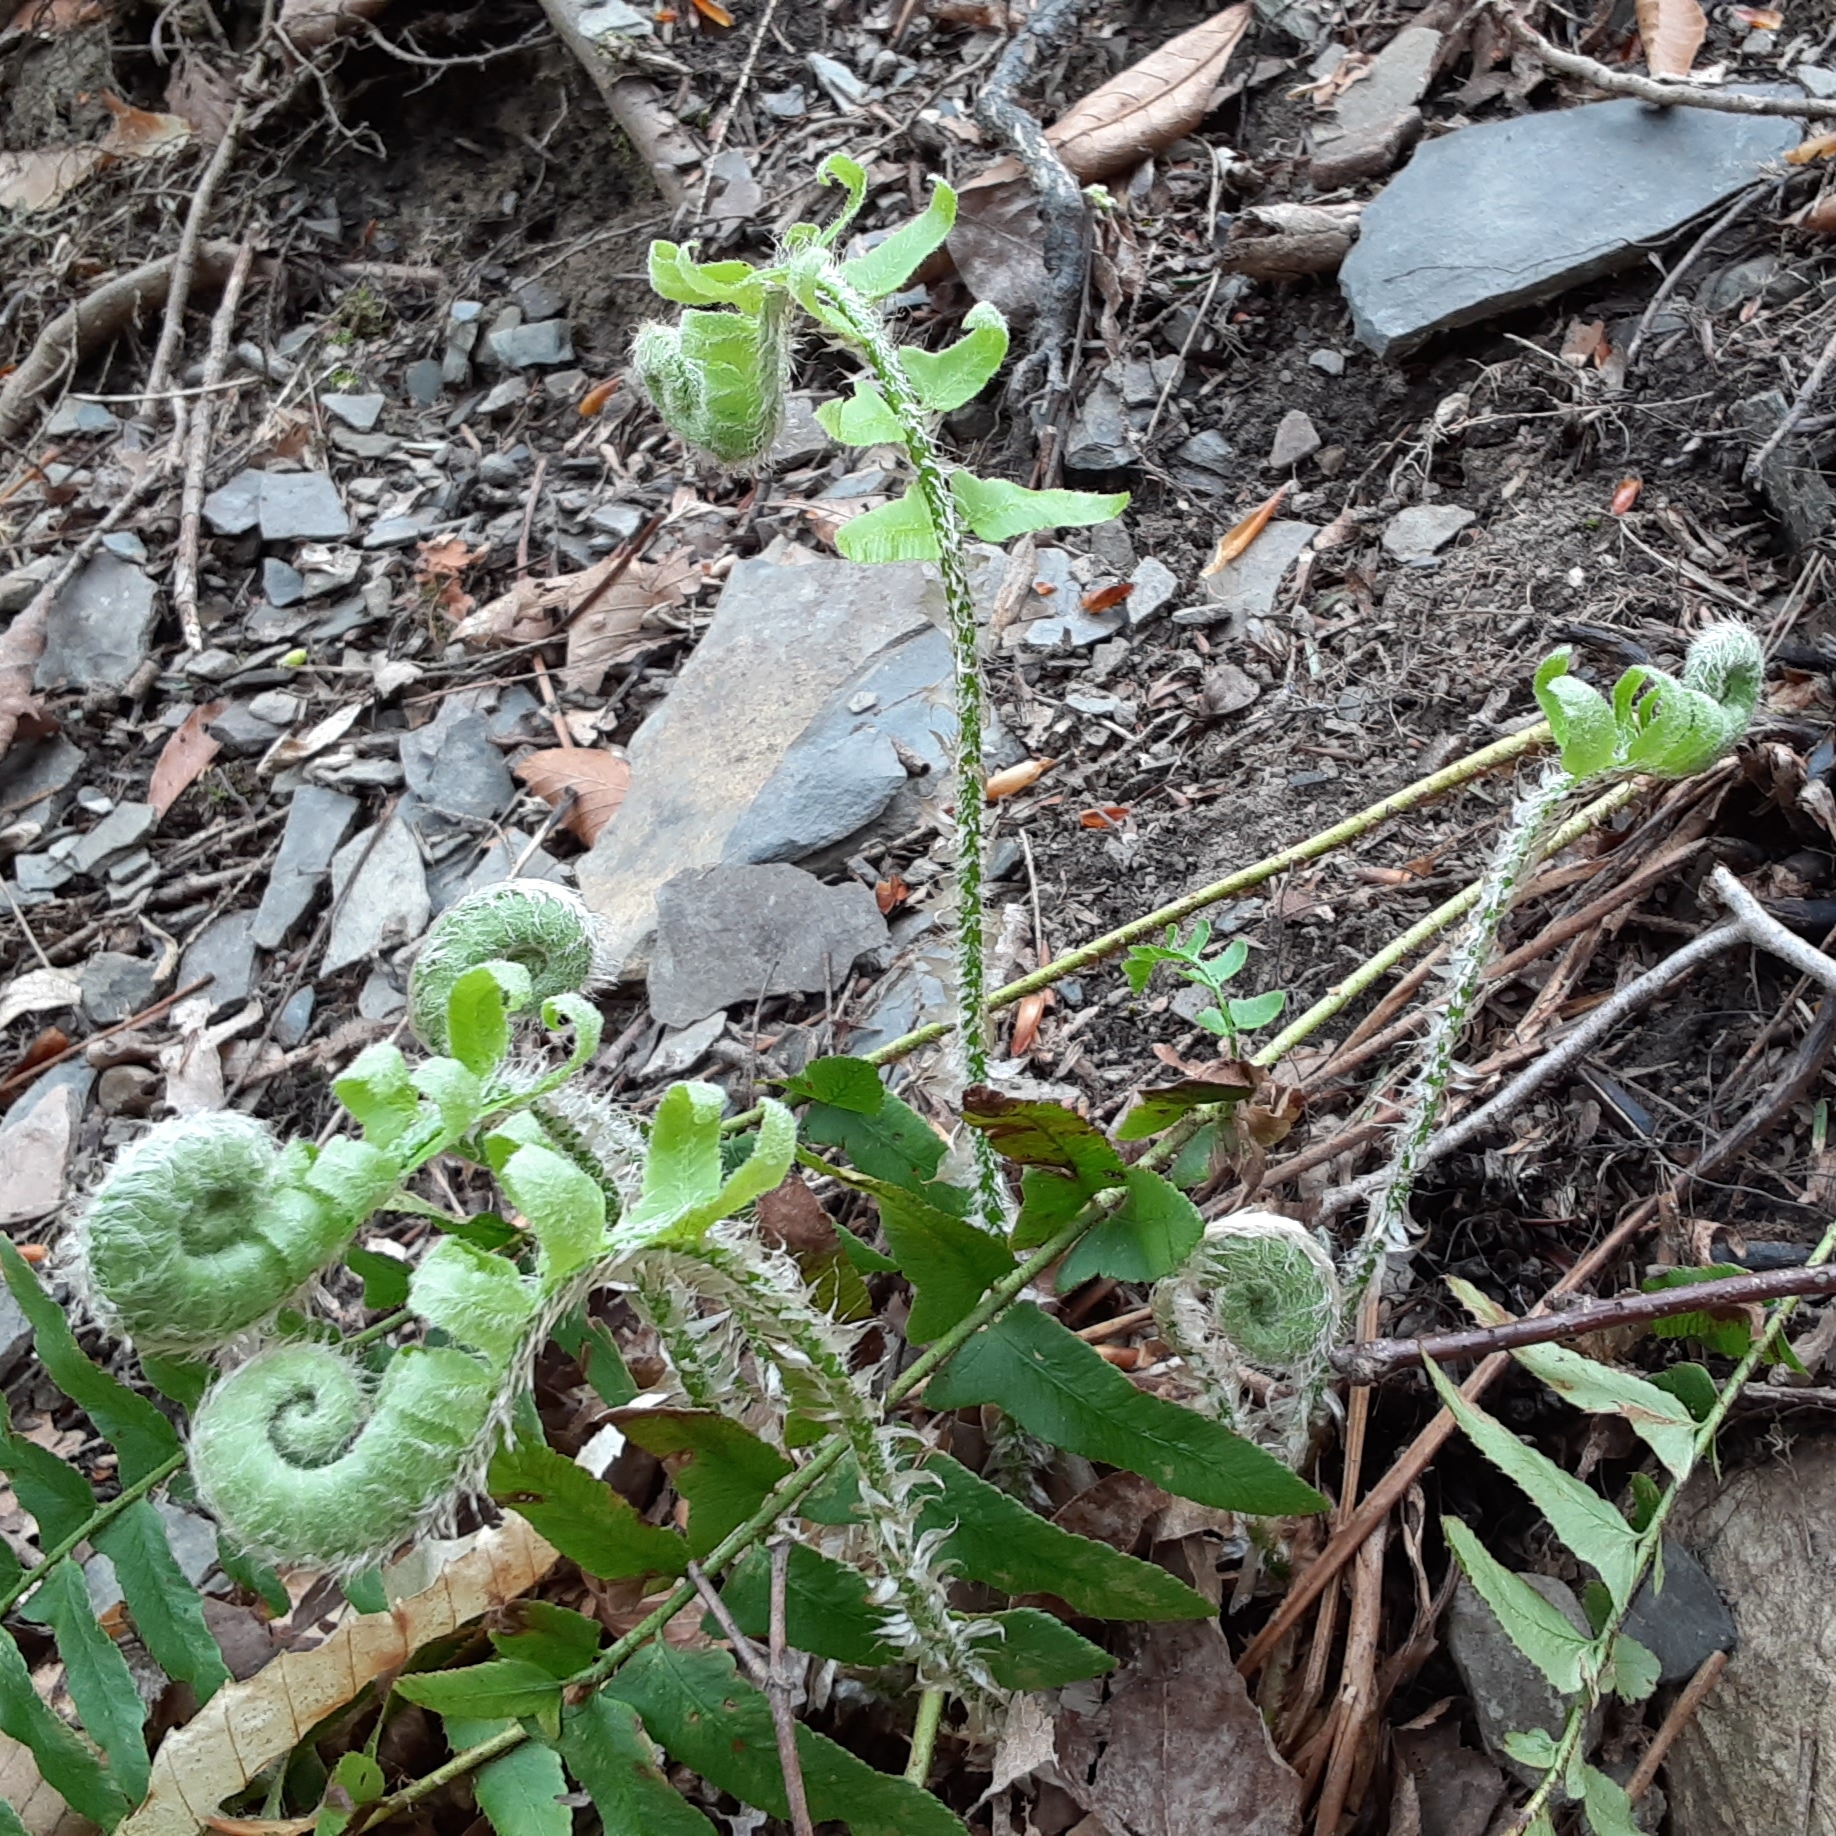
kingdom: Plantae
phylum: Tracheophyta
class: Polypodiopsida
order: Polypodiales
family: Dryopteridaceae
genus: Polystichum
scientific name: Polystichum acrostichoides
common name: Christmas fern
